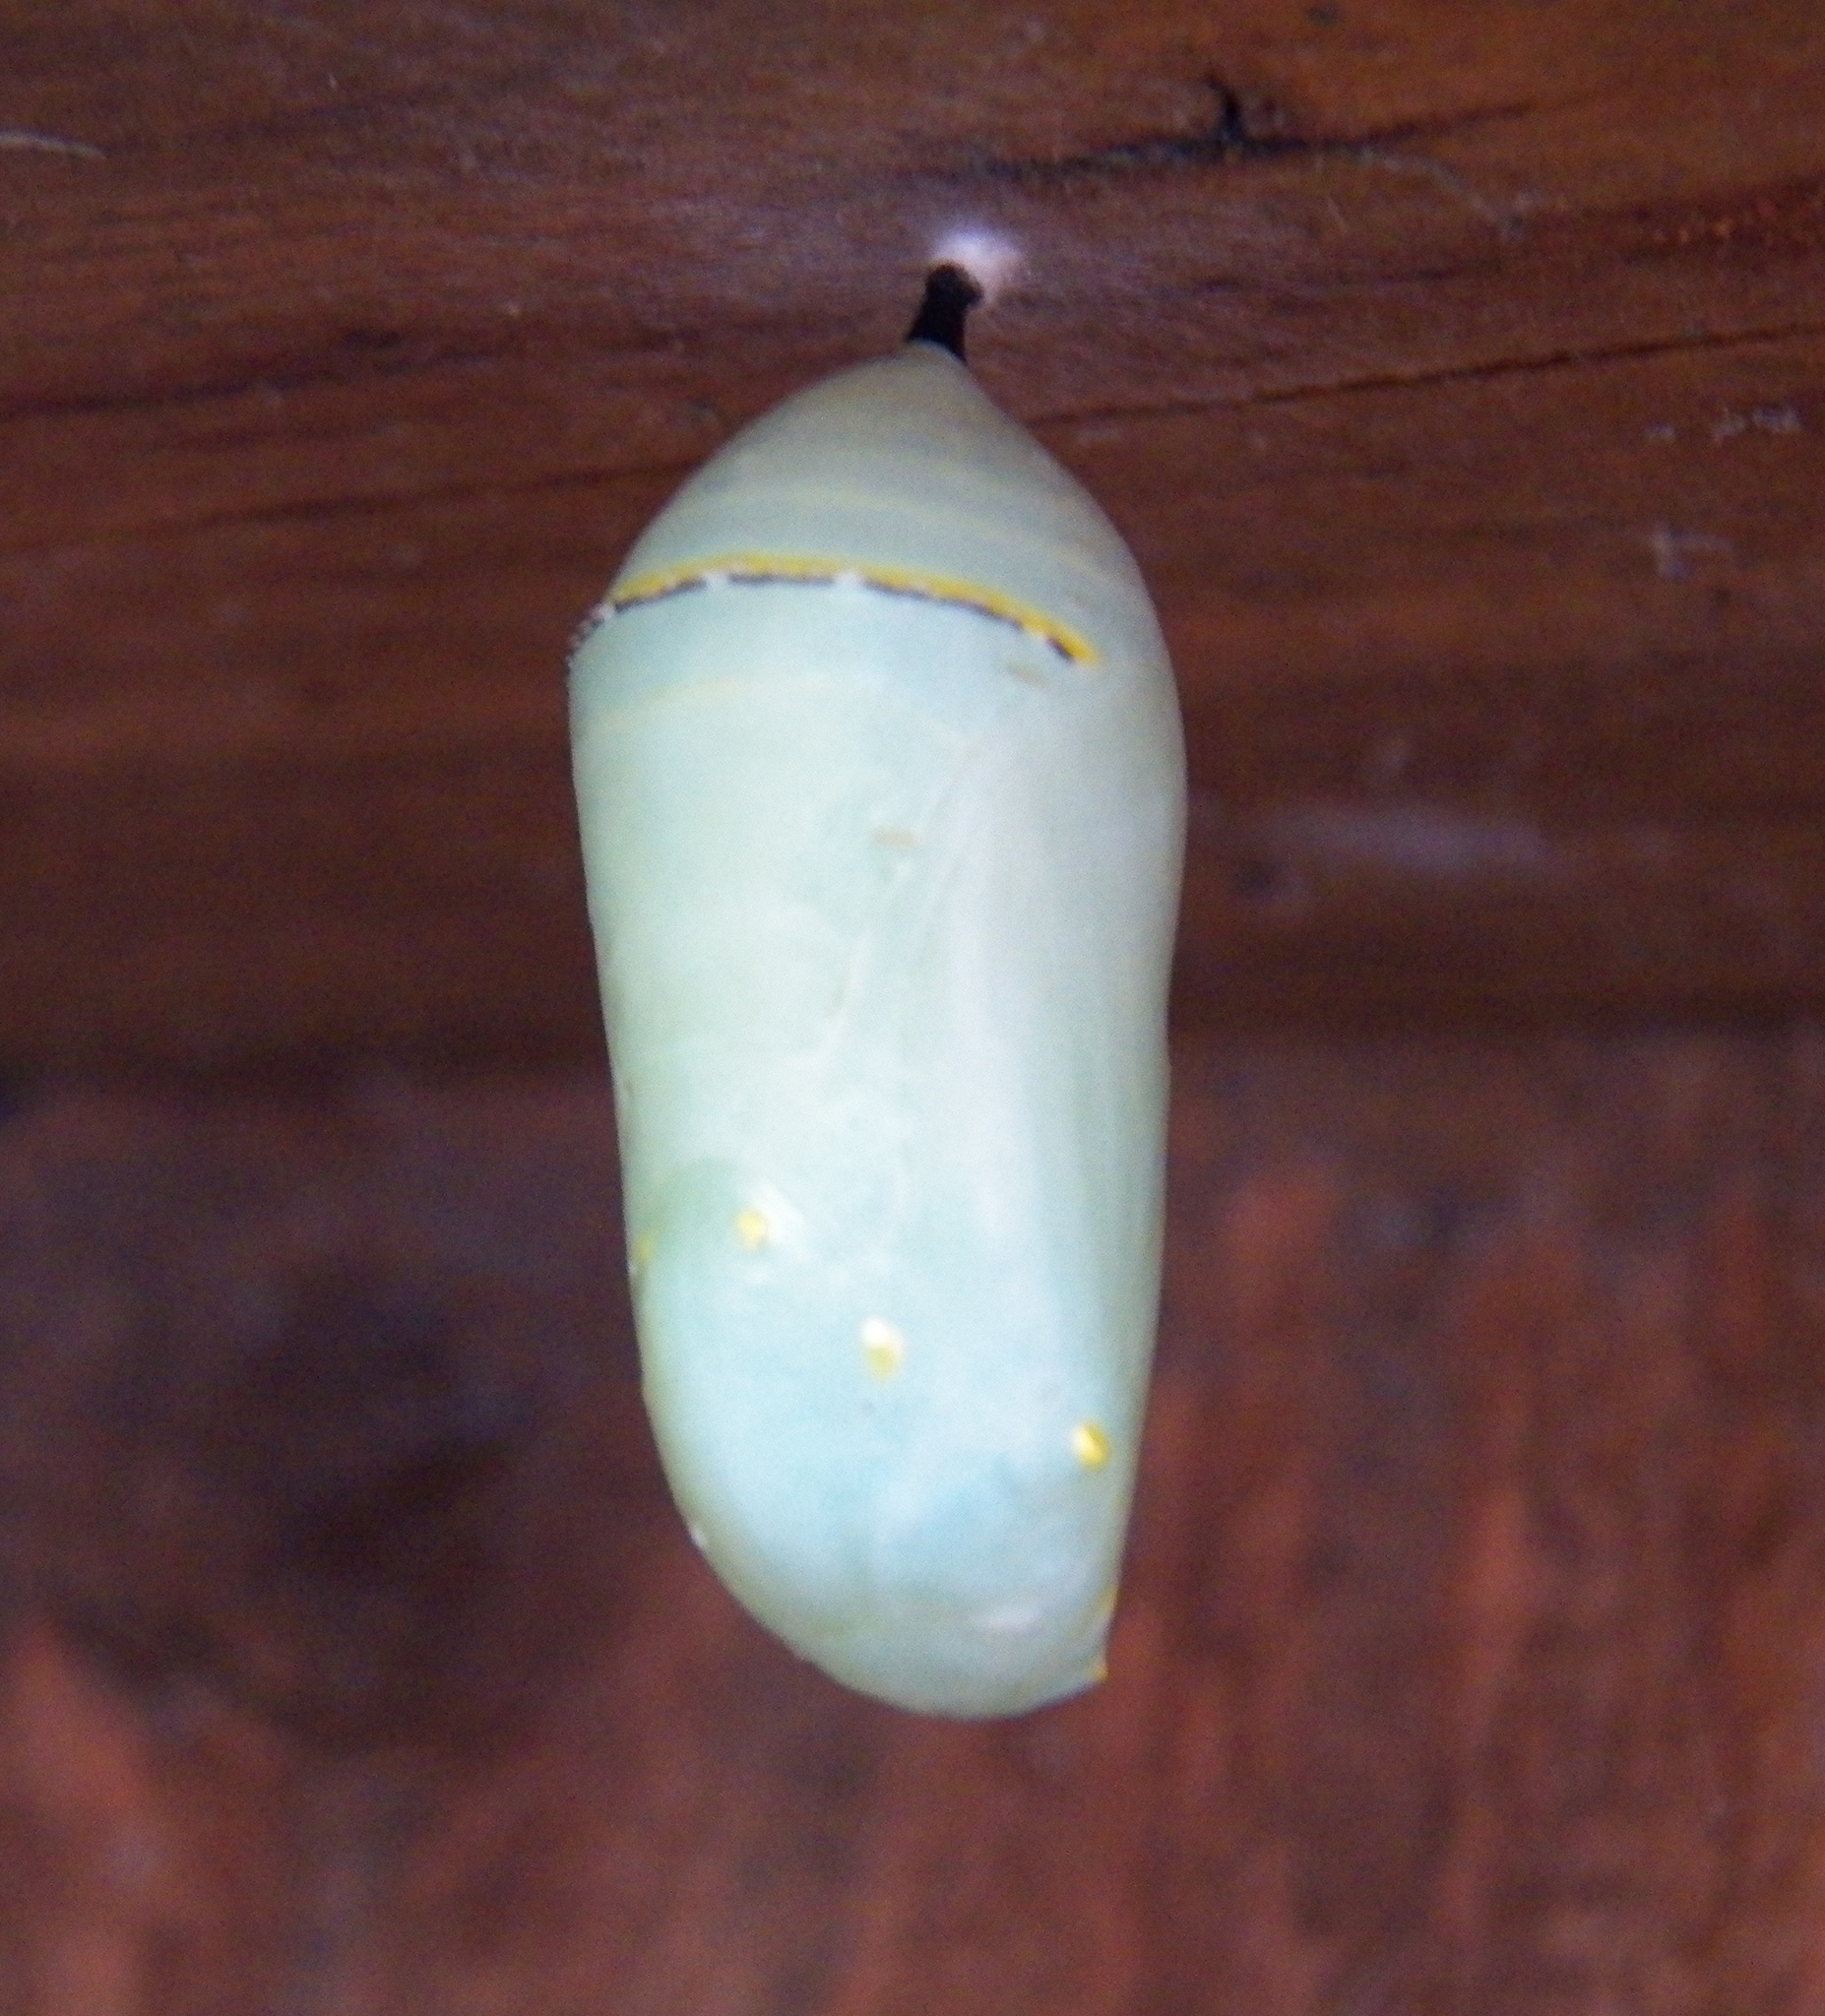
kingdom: Animalia
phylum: Arthropoda
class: Insecta
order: Lepidoptera
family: Nymphalidae
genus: Danaus
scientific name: Danaus plexippus
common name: Monarch
